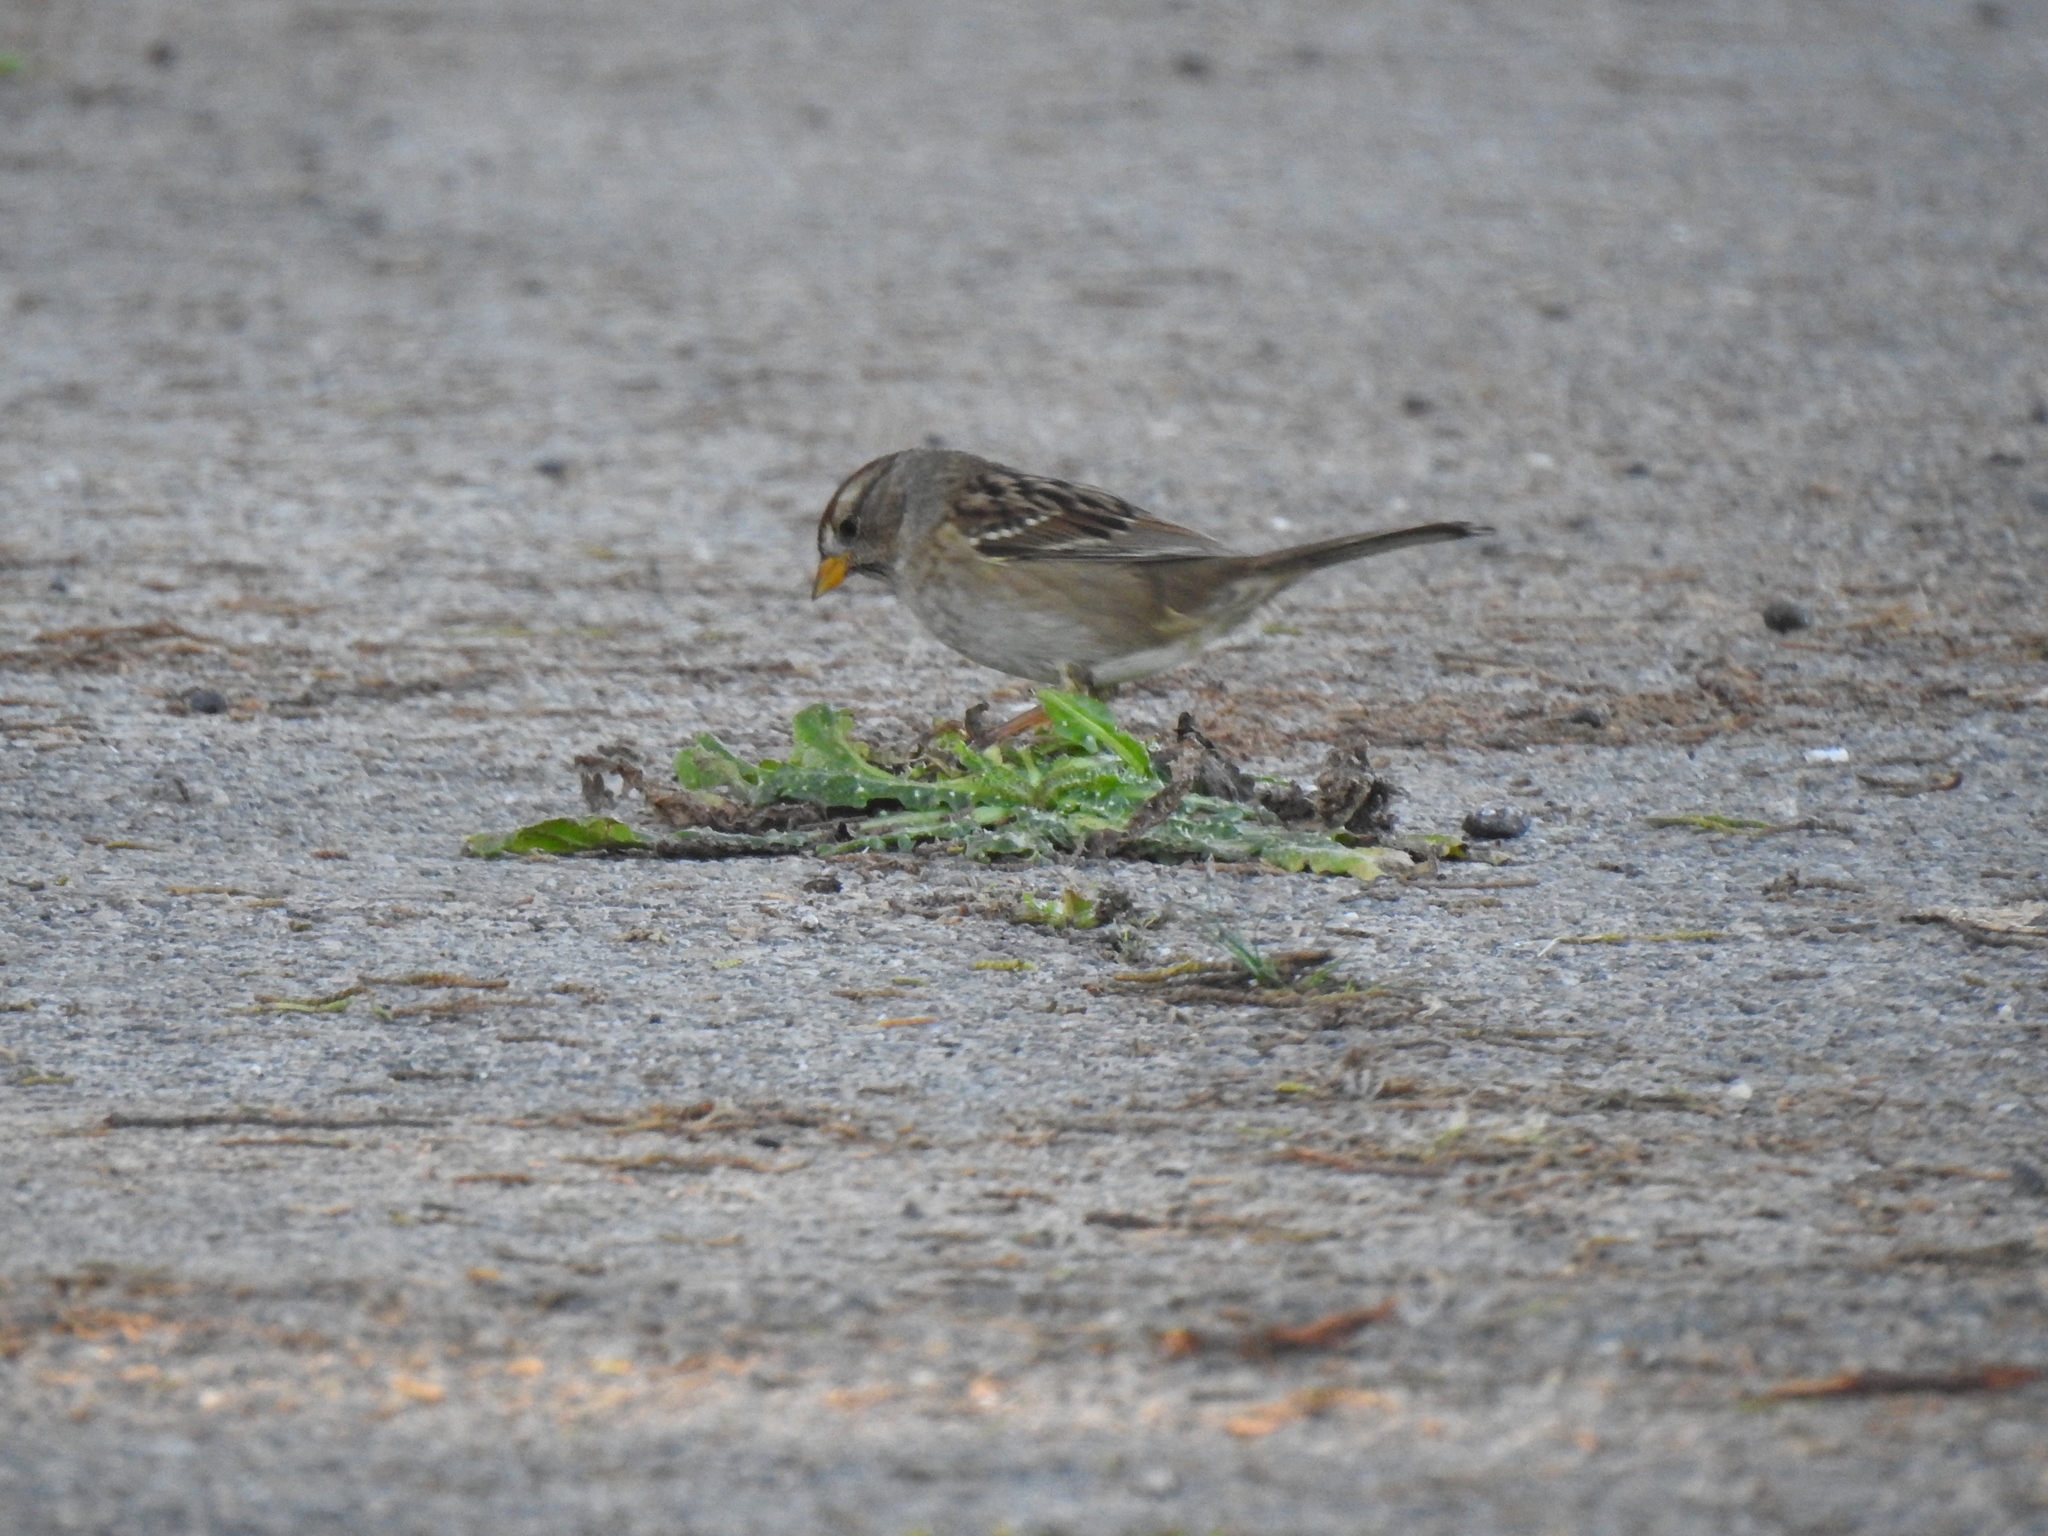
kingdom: Animalia
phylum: Chordata
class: Aves
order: Passeriformes
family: Passerellidae
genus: Zonotrichia
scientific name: Zonotrichia leucophrys
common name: White-crowned sparrow
